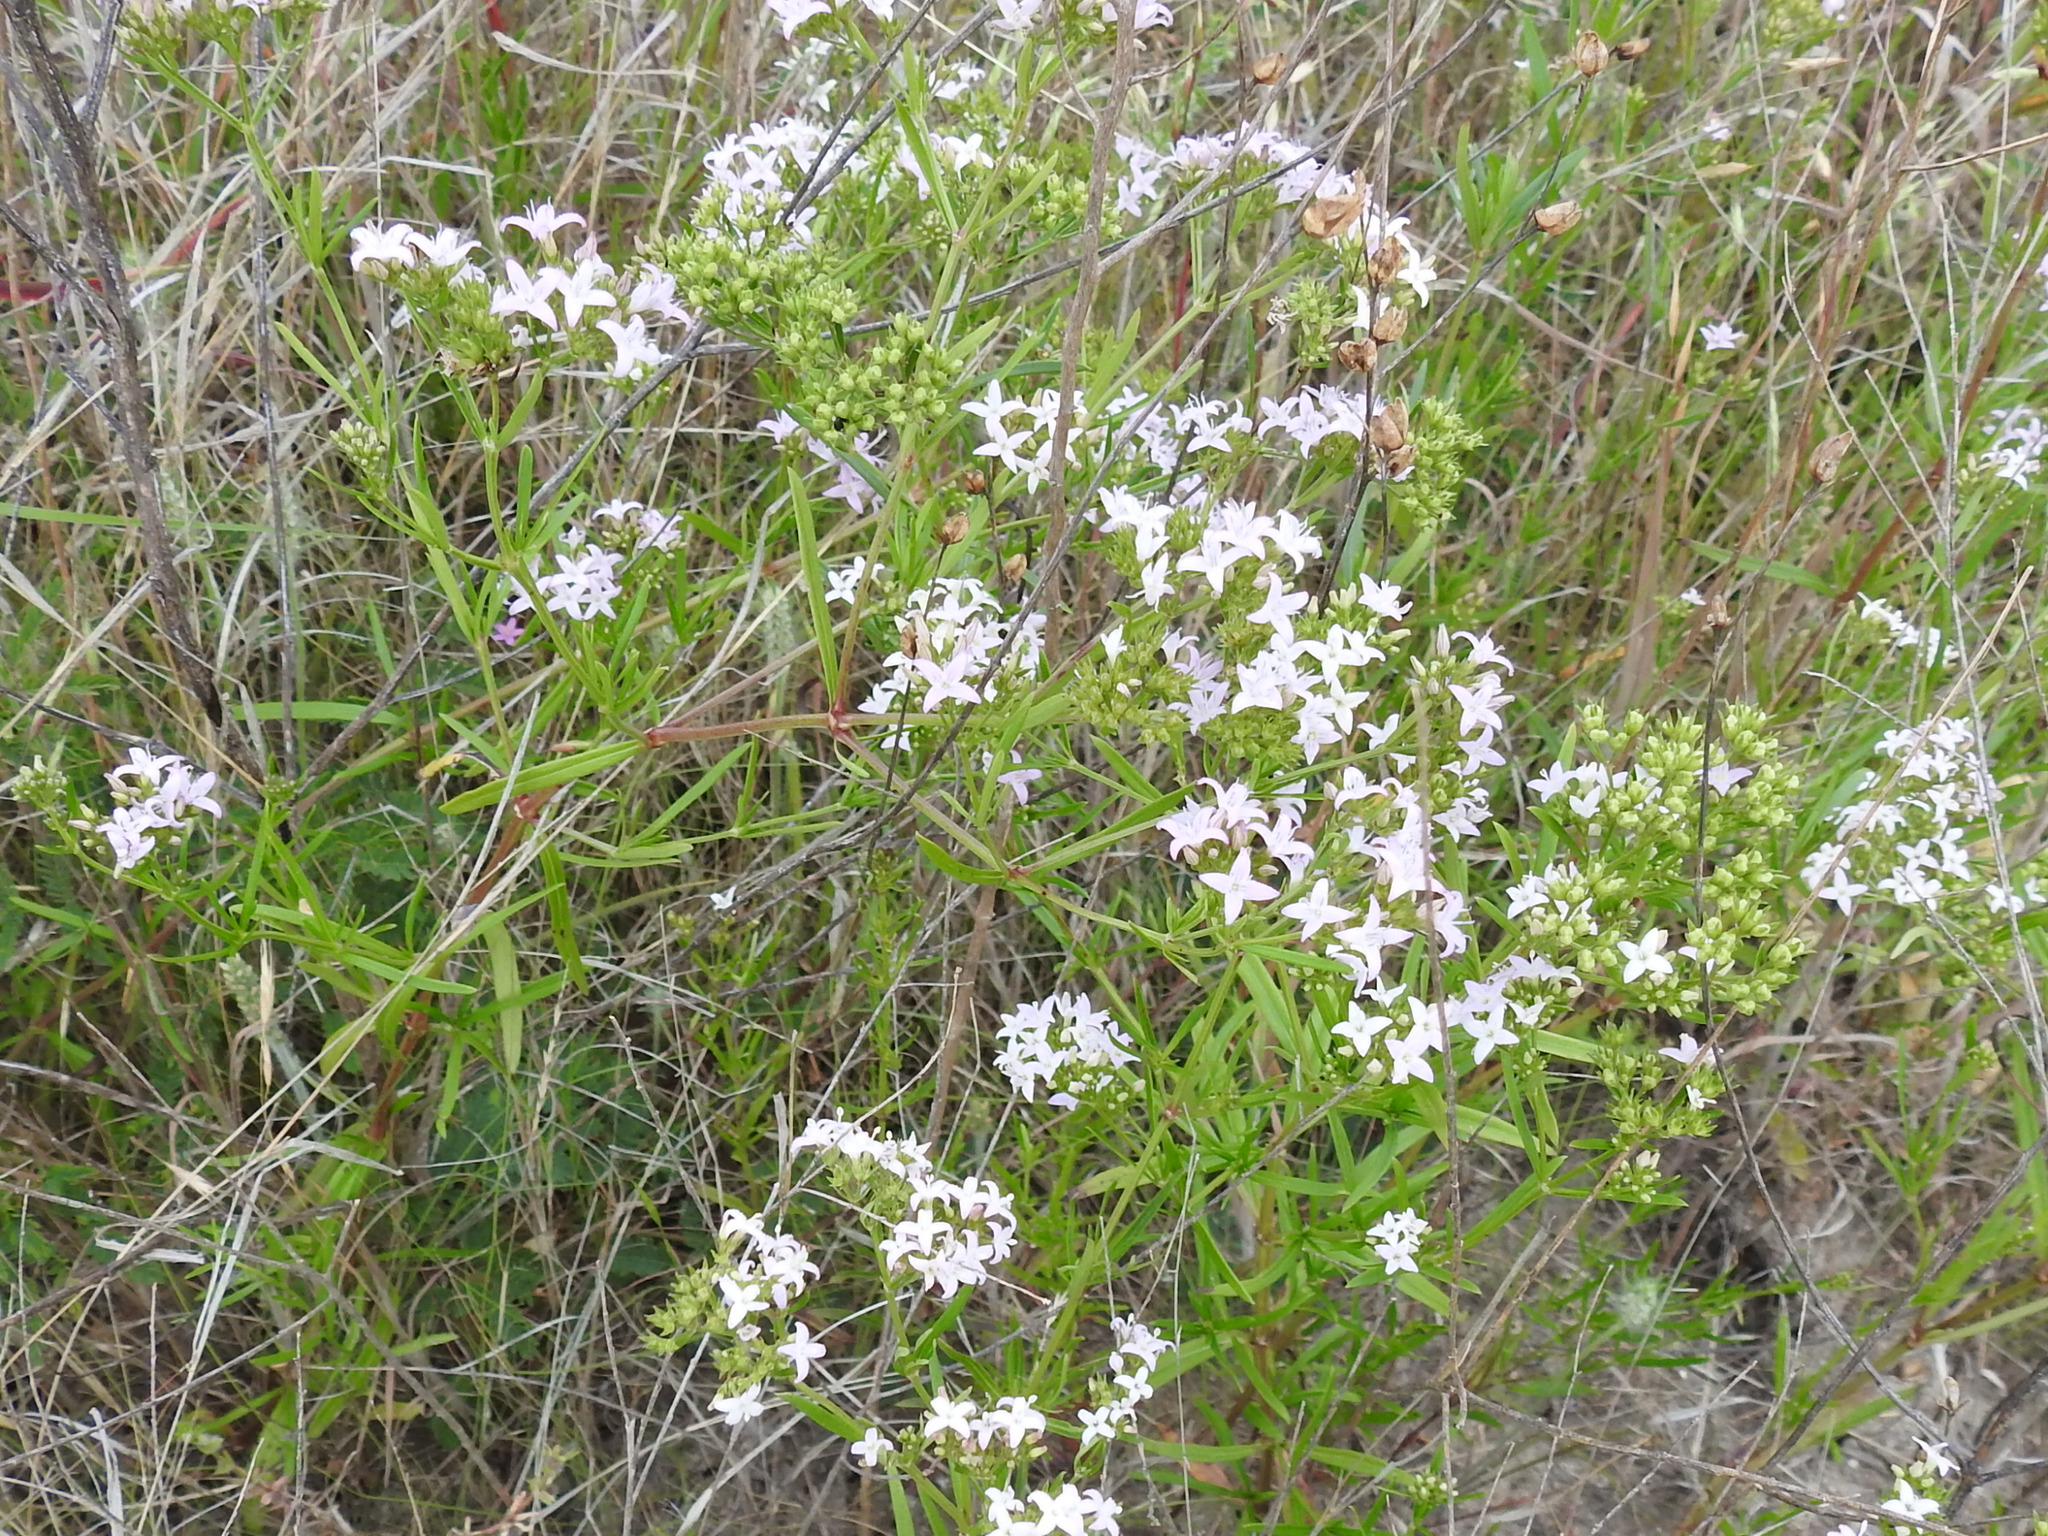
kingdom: Plantae
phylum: Tracheophyta
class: Magnoliopsida
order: Gentianales
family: Rubiaceae
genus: Stenaria
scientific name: Stenaria nigricans
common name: Diamondflowers
